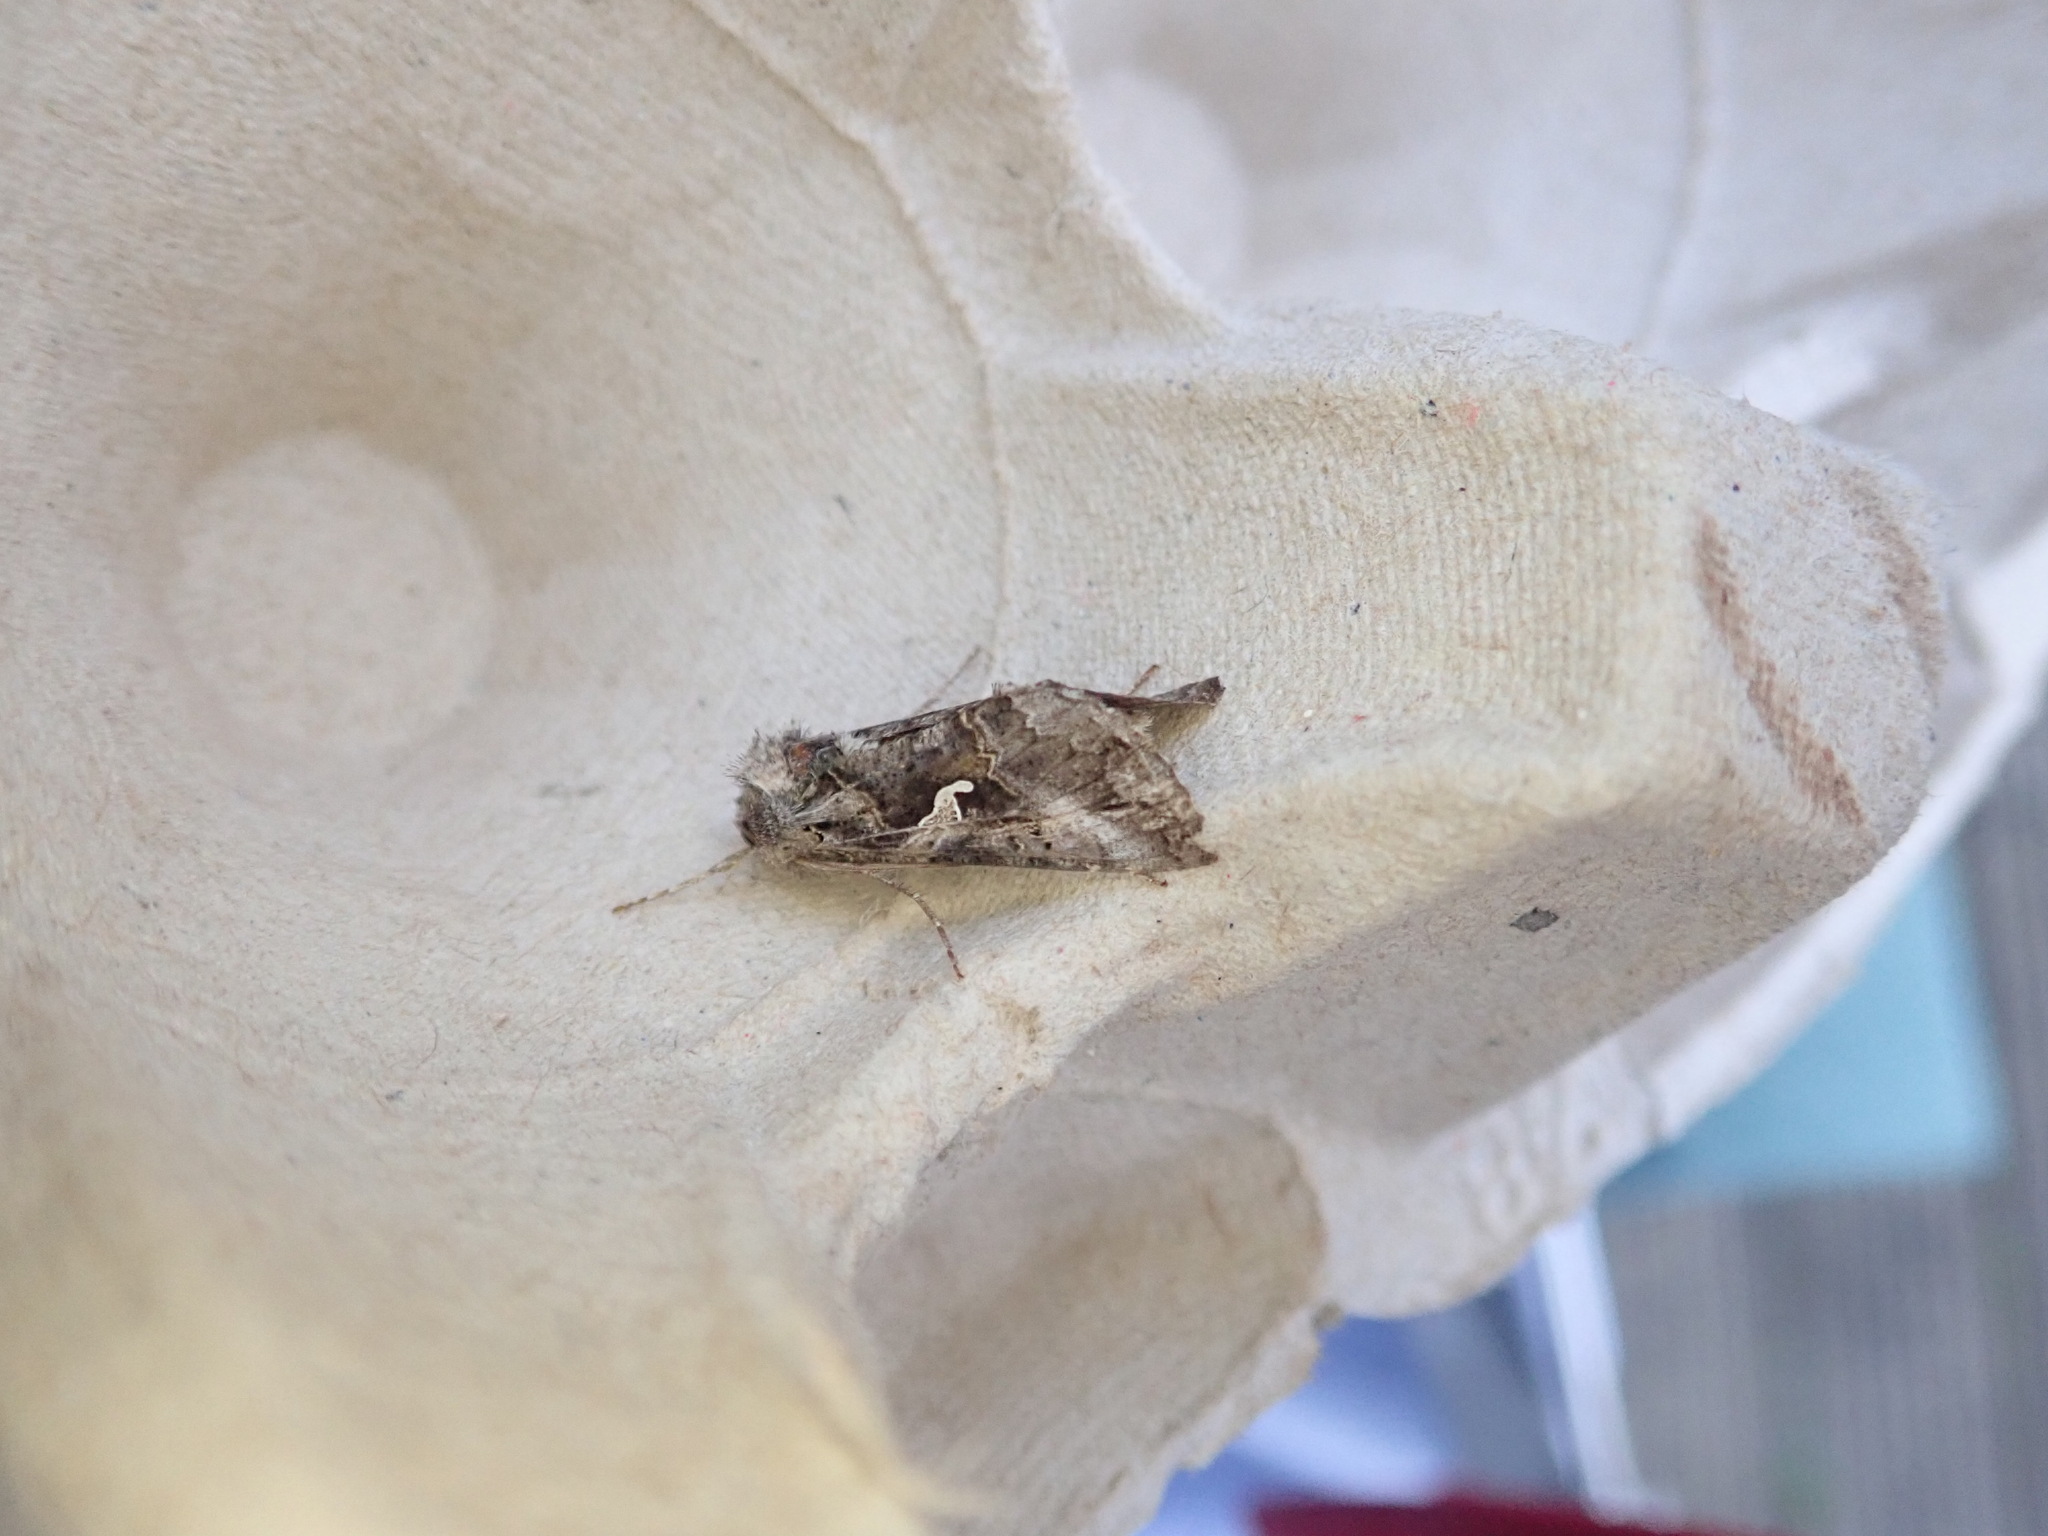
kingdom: Animalia
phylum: Arthropoda
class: Insecta
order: Lepidoptera
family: Noctuidae
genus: Autographa
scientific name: Autographa gamma
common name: Silver y
